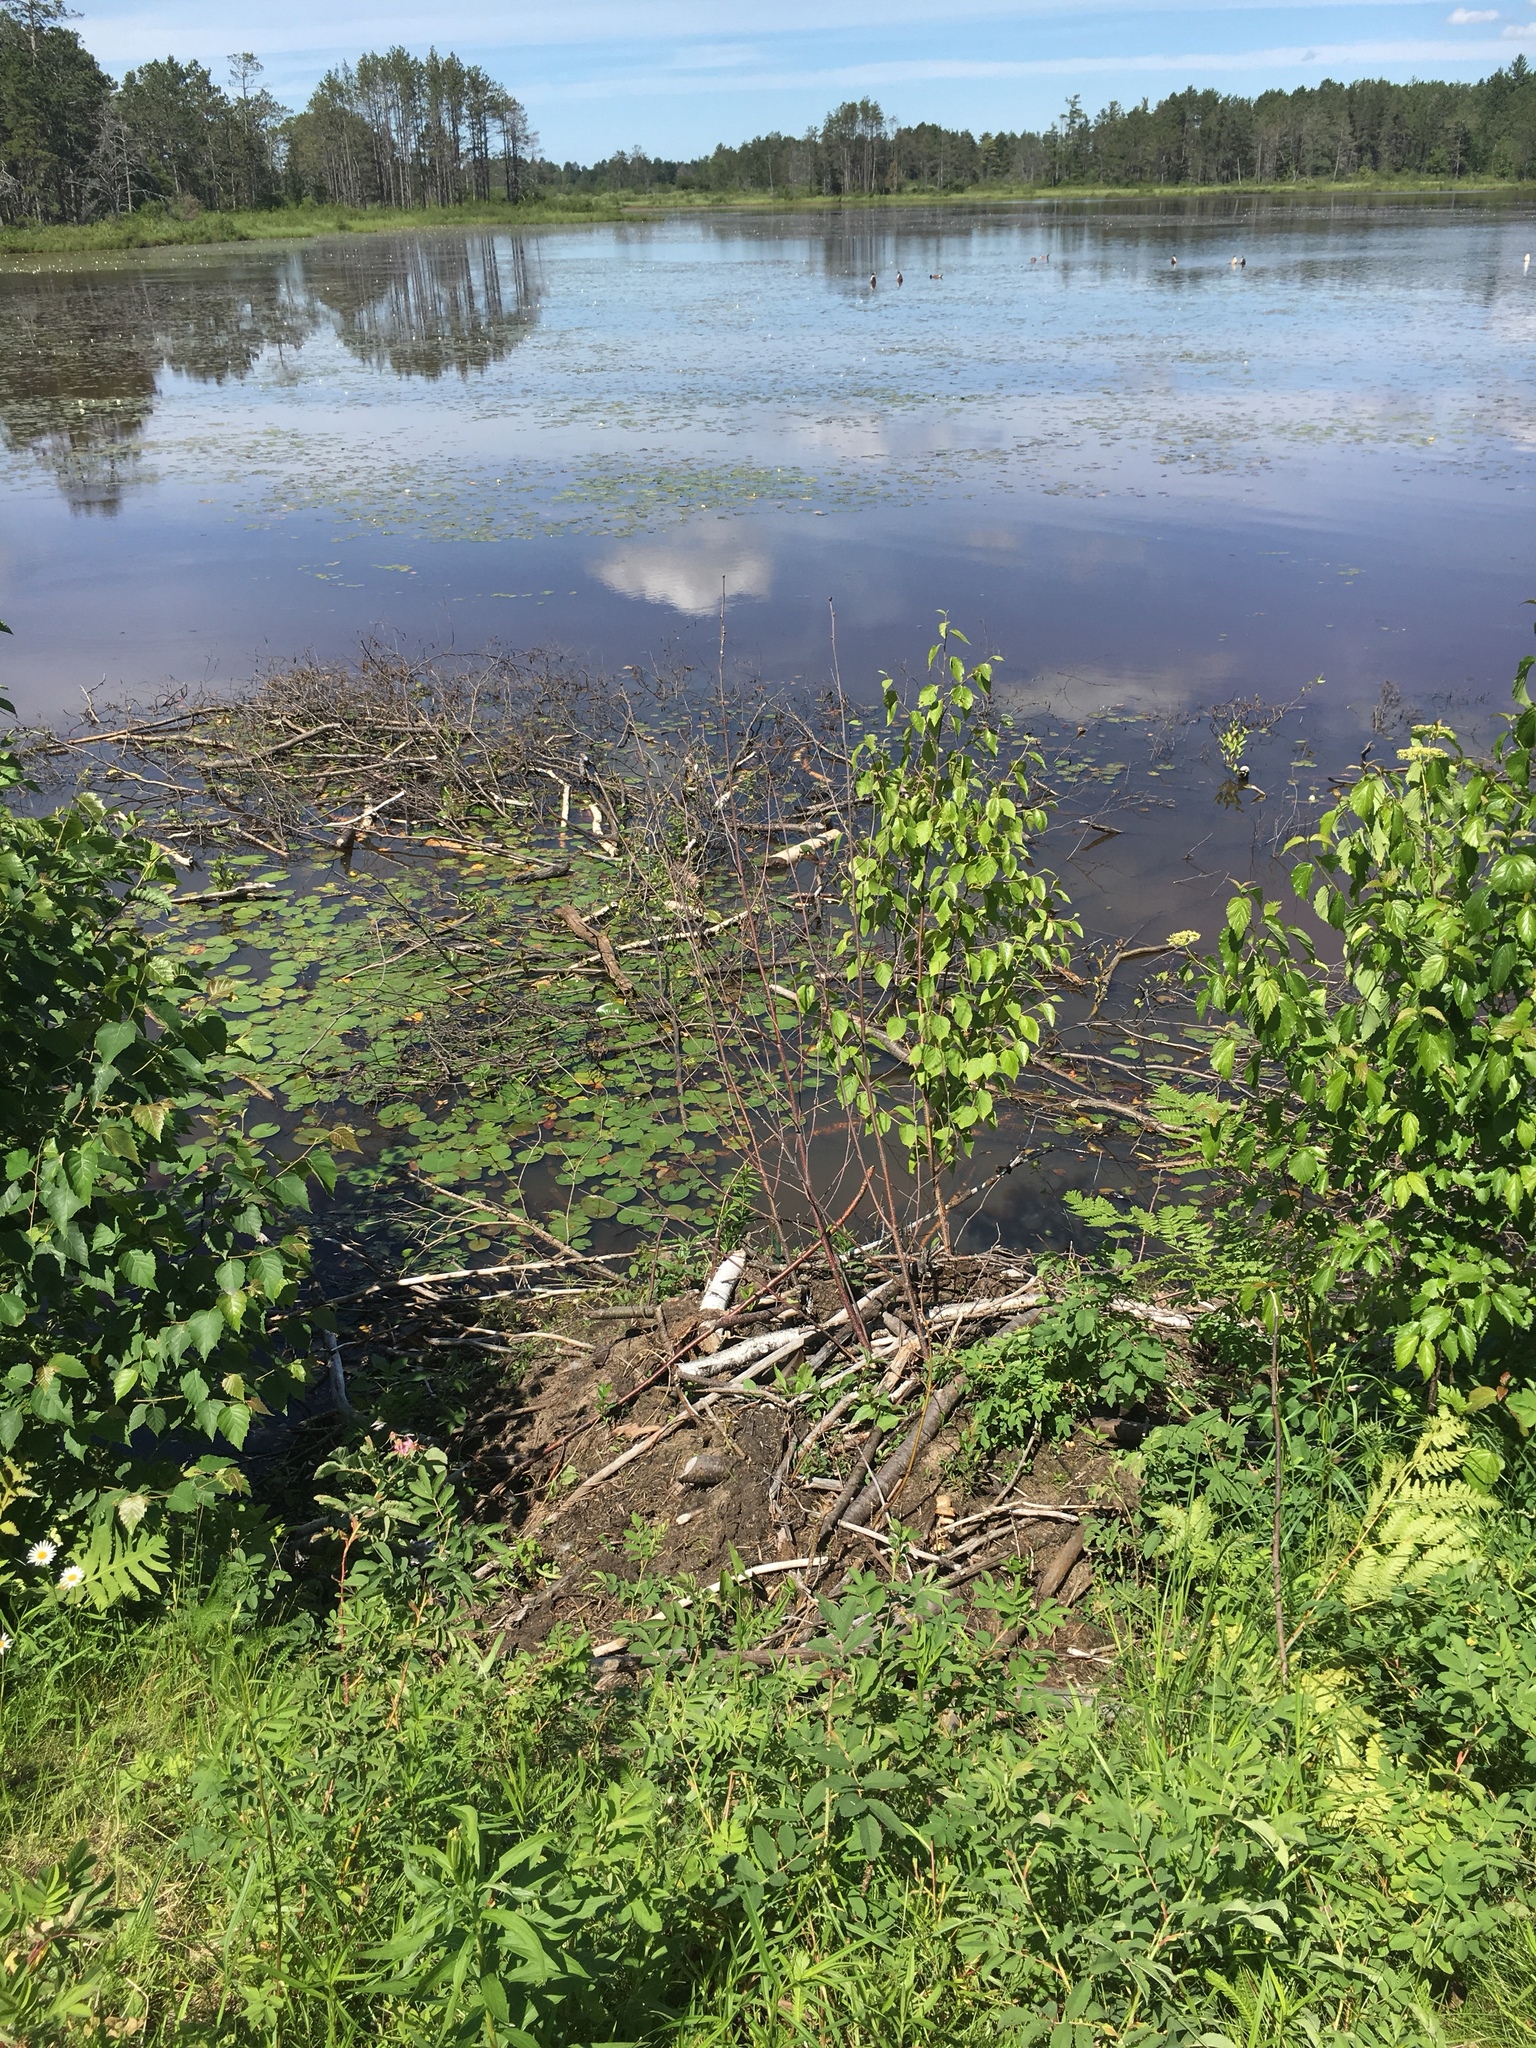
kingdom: Animalia
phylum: Chordata
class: Mammalia
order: Rodentia
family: Castoridae
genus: Castor
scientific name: Castor canadensis
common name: American beaver
